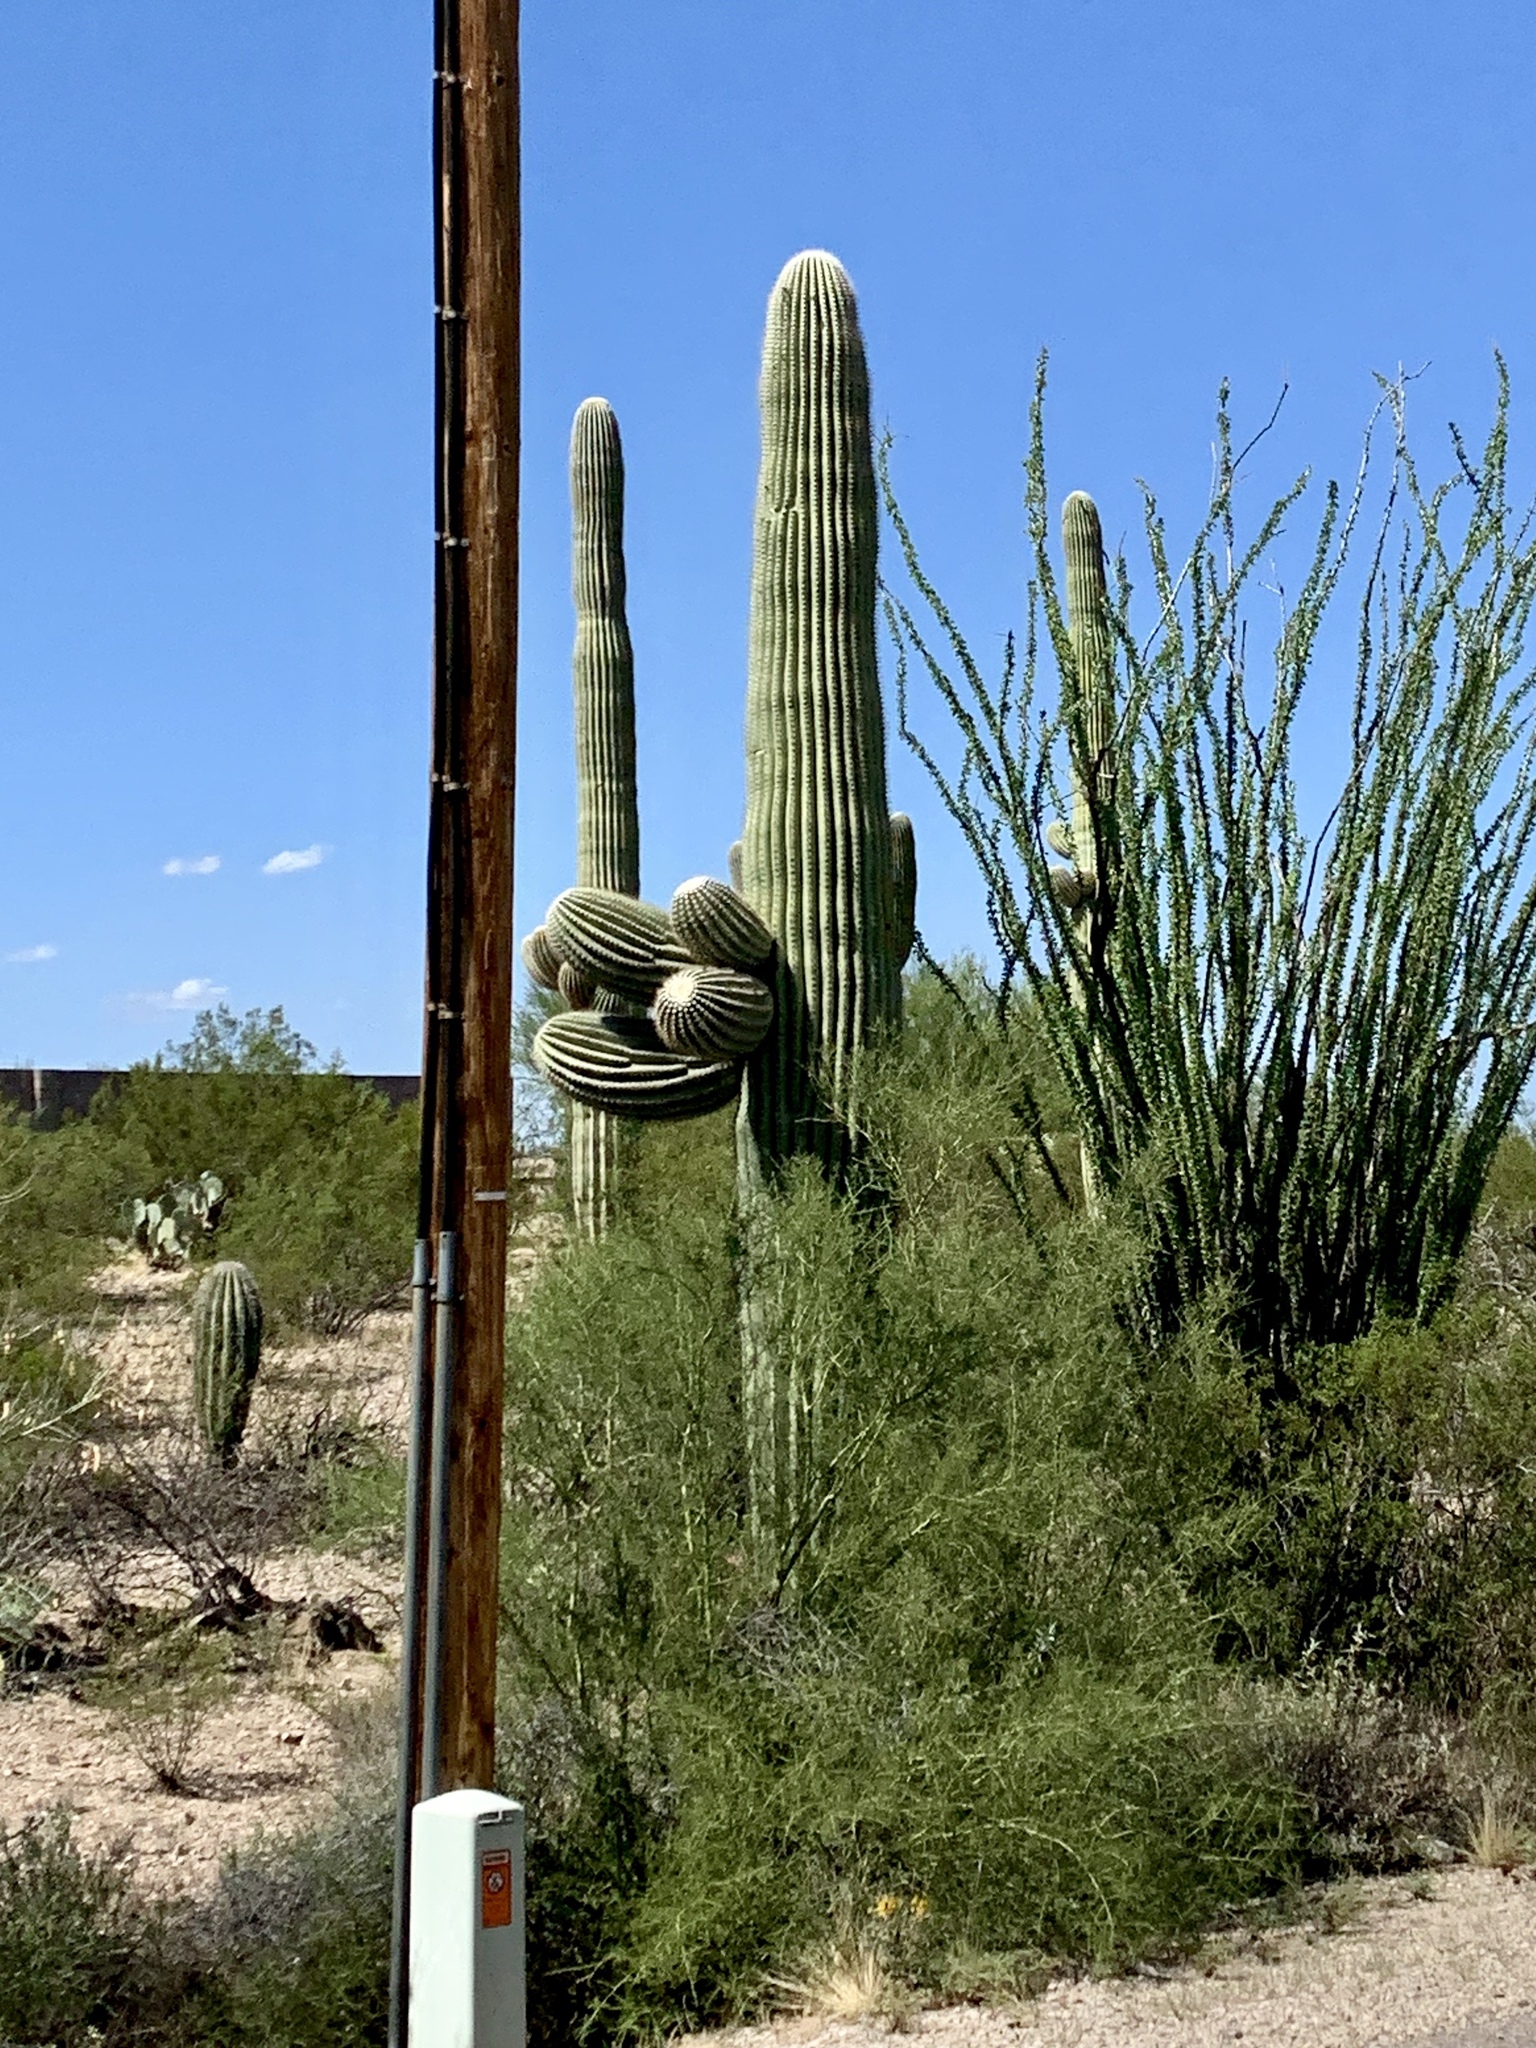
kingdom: Plantae
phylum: Tracheophyta
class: Magnoliopsida
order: Caryophyllales
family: Cactaceae
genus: Carnegiea
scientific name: Carnegiea gigantea
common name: Saguaro
